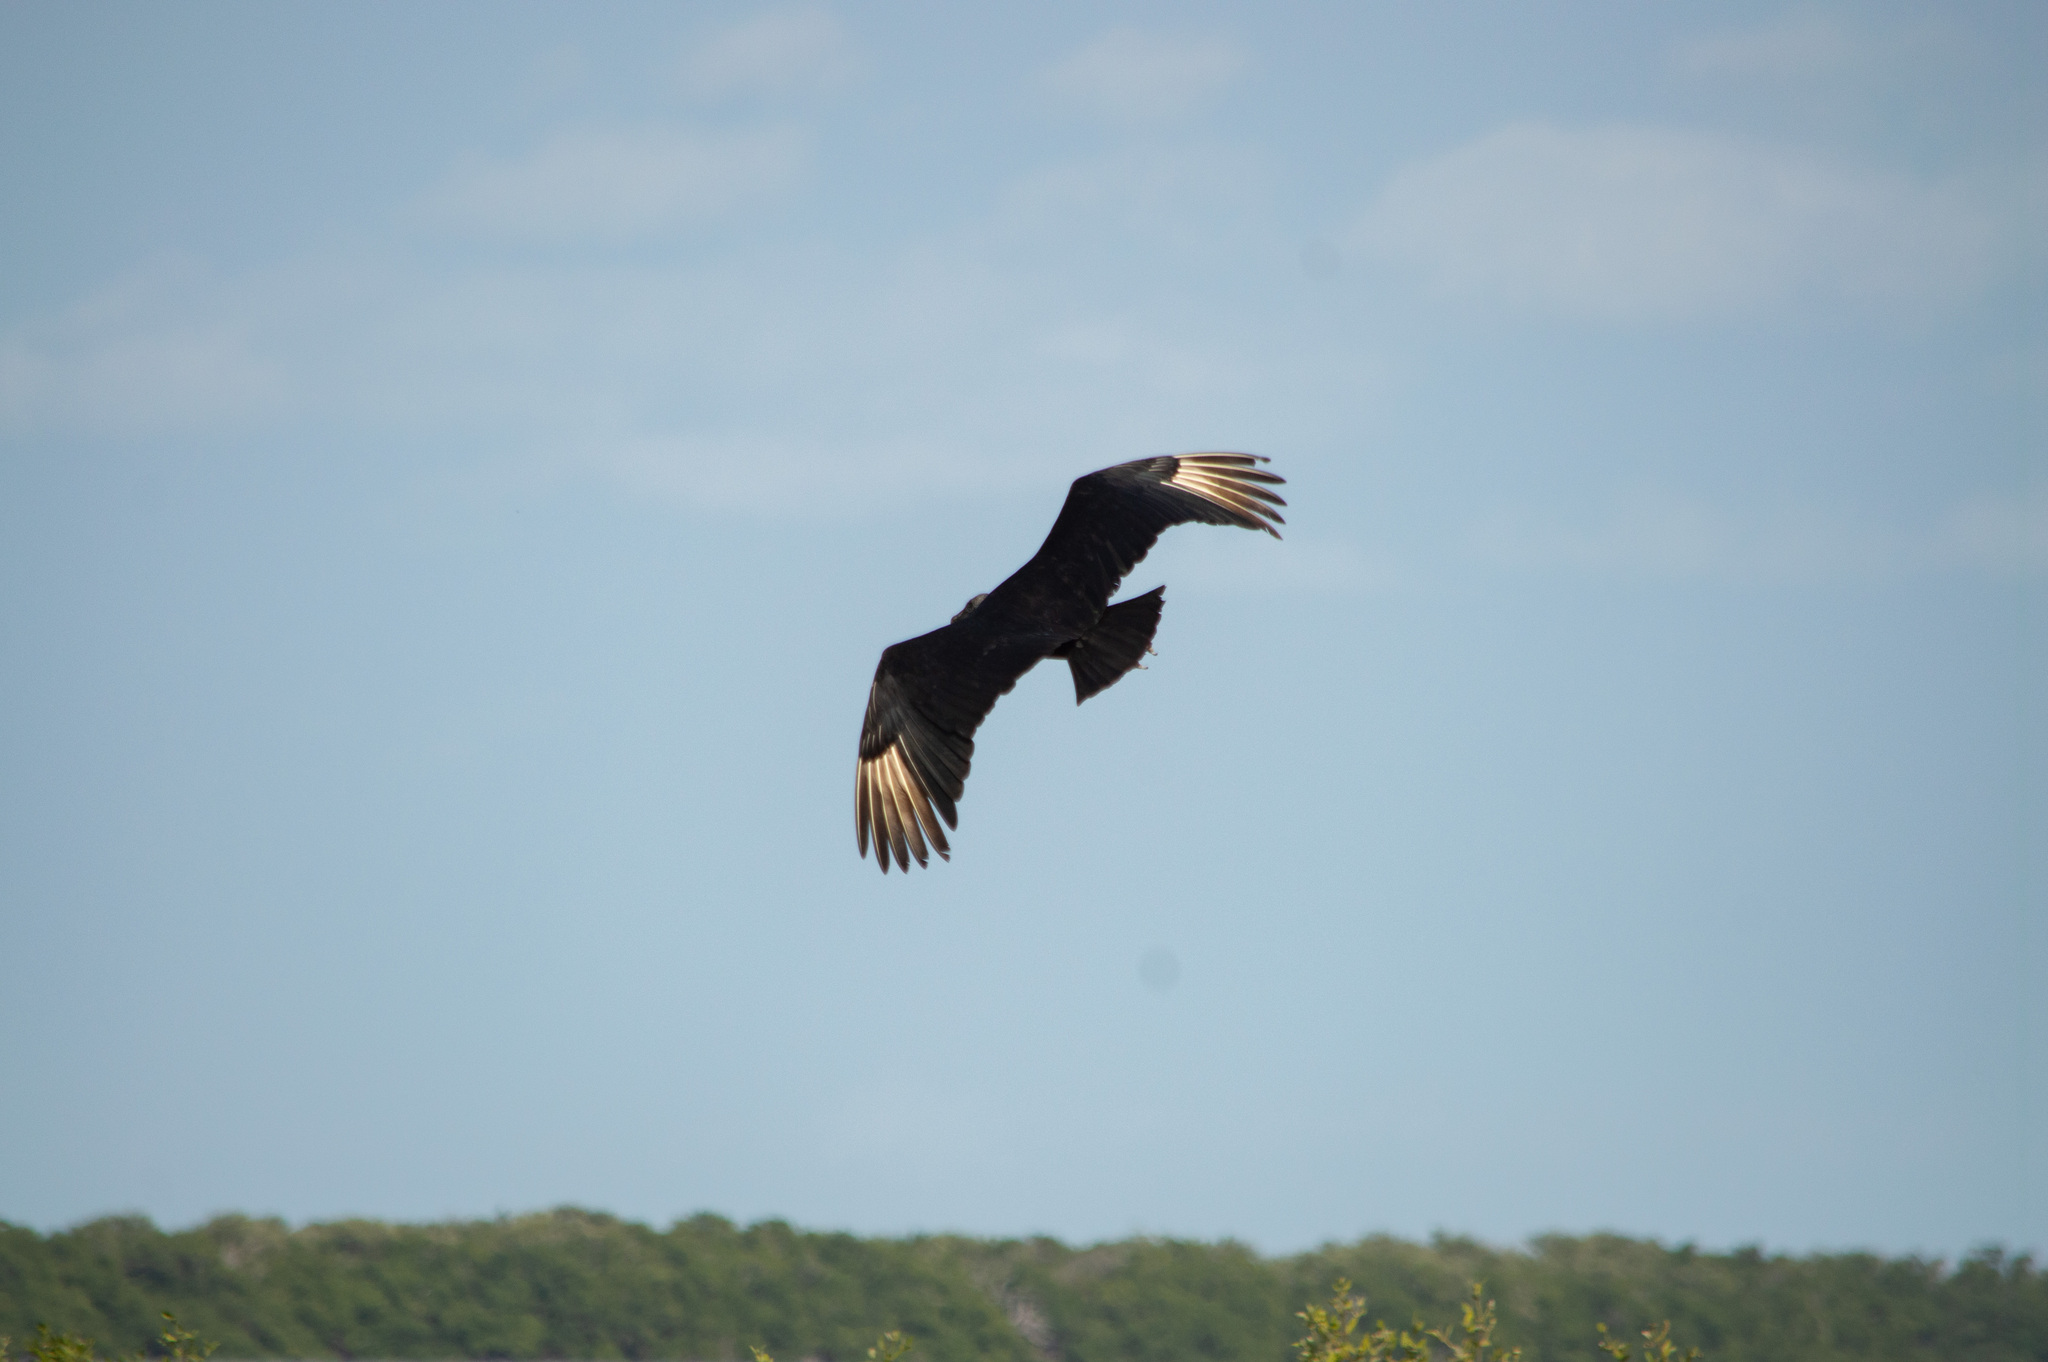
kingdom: Animalia
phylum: Chordata
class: Aves
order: Accipitriformes
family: Cathartidae
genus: Coragyps
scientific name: Coragyps atratus
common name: Black vulture
